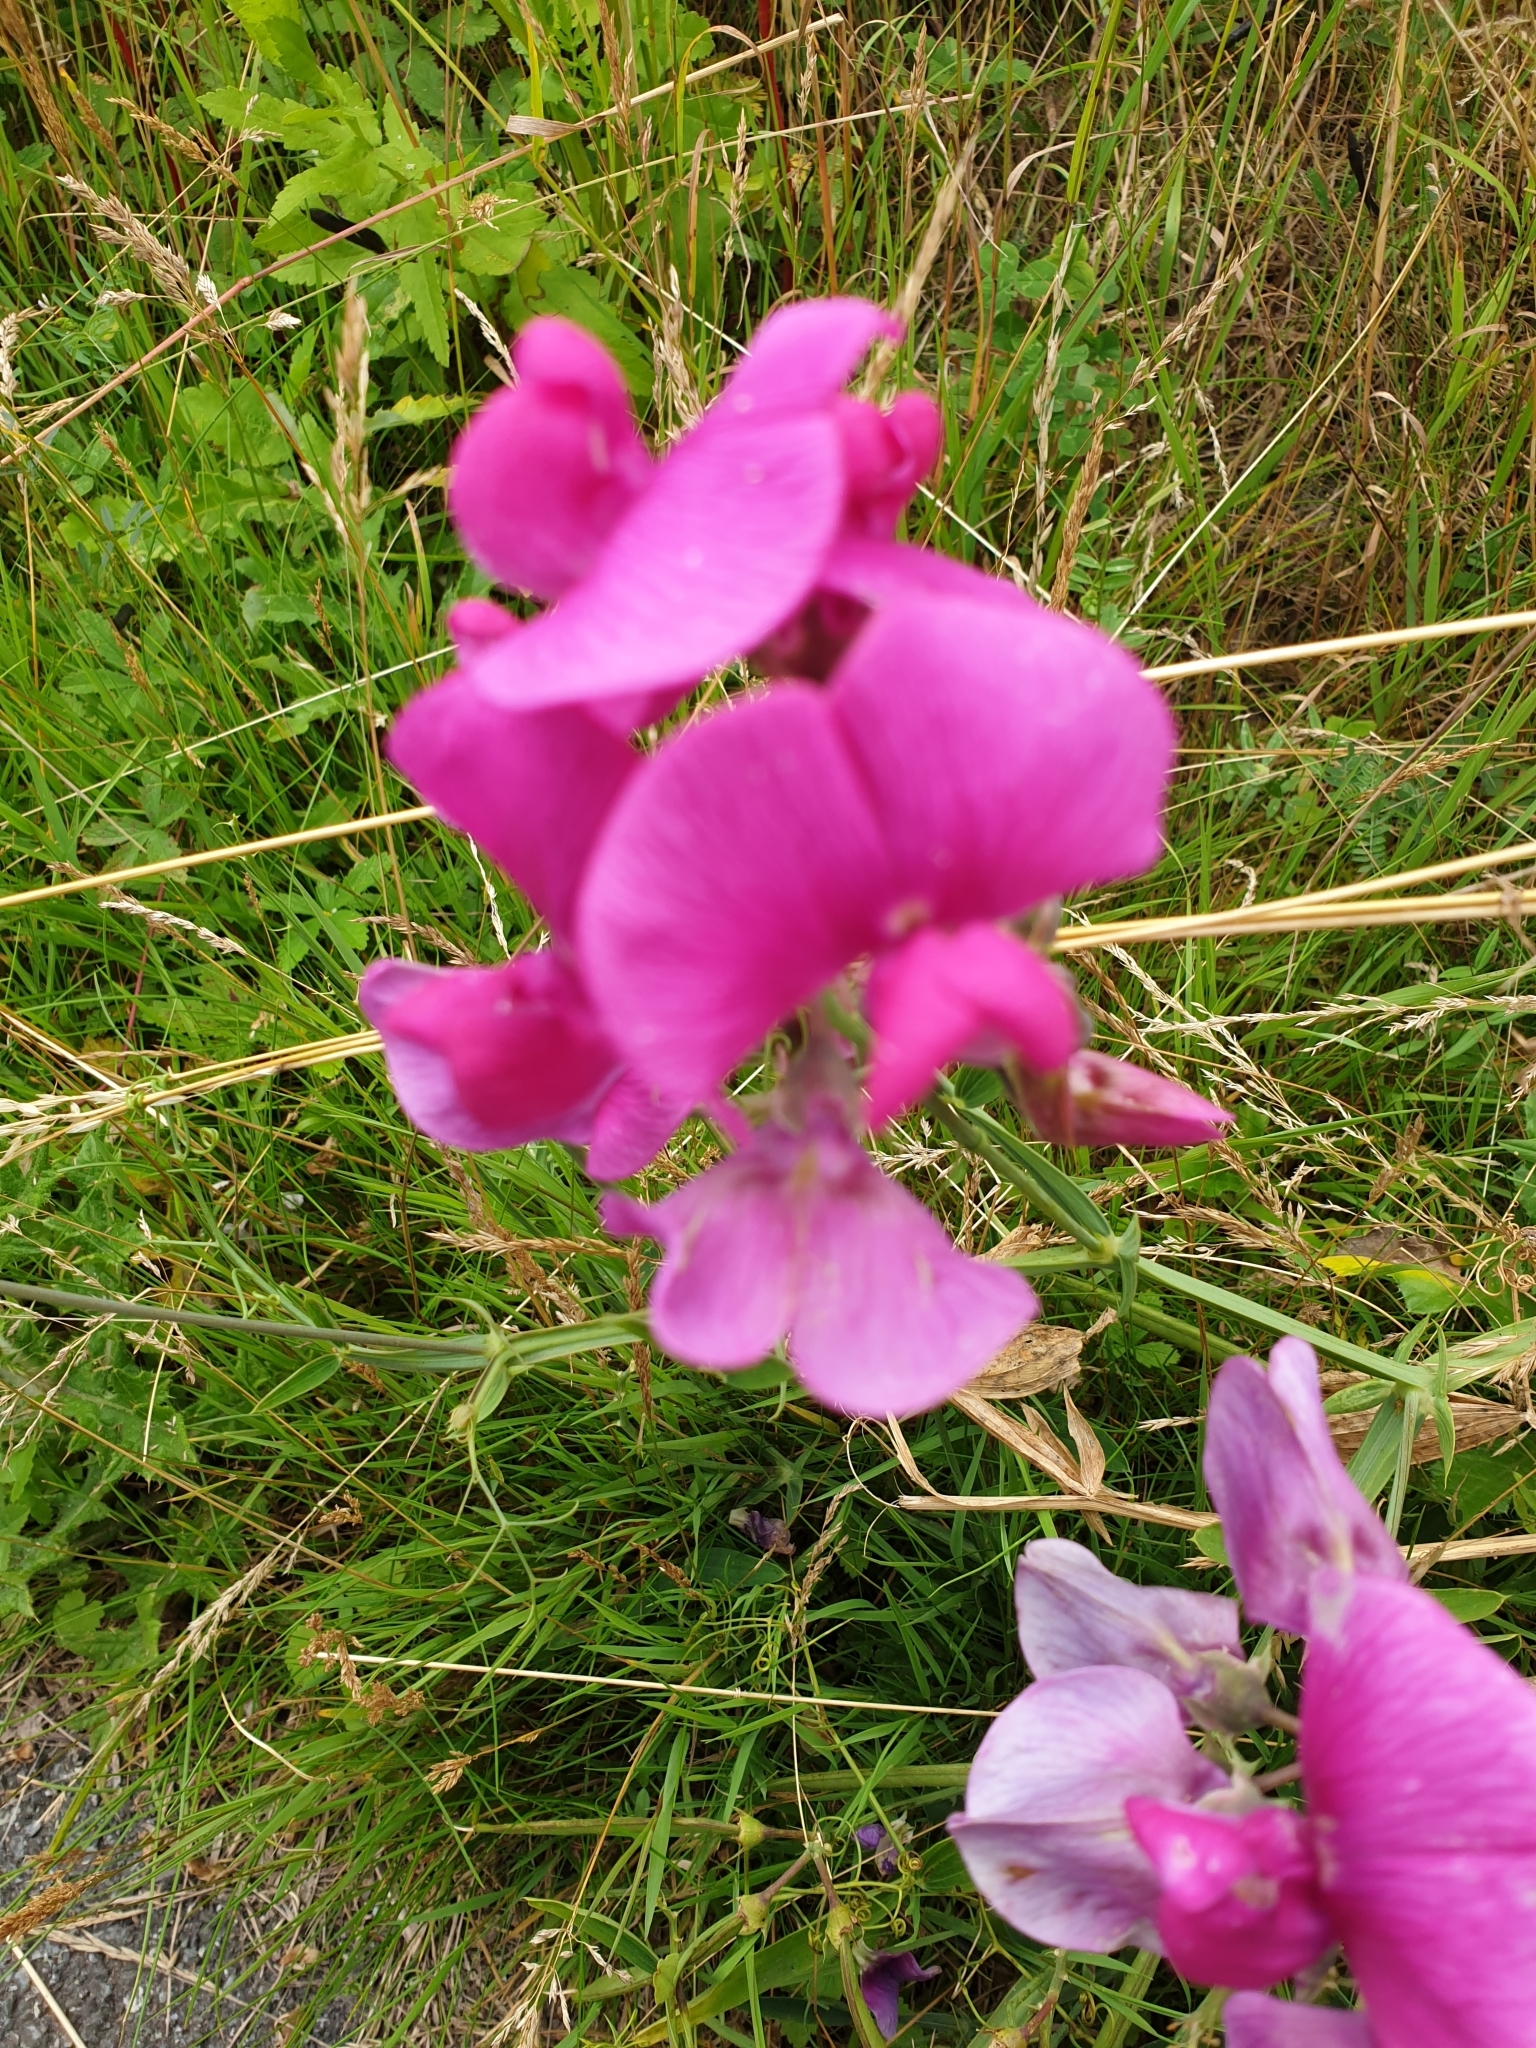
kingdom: Plantae
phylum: Tracheophyta
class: Magnoliopsida
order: Fabales
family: Fabaceae
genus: Lathyrus
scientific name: Lathyrus latifolius
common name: Perennial pea
